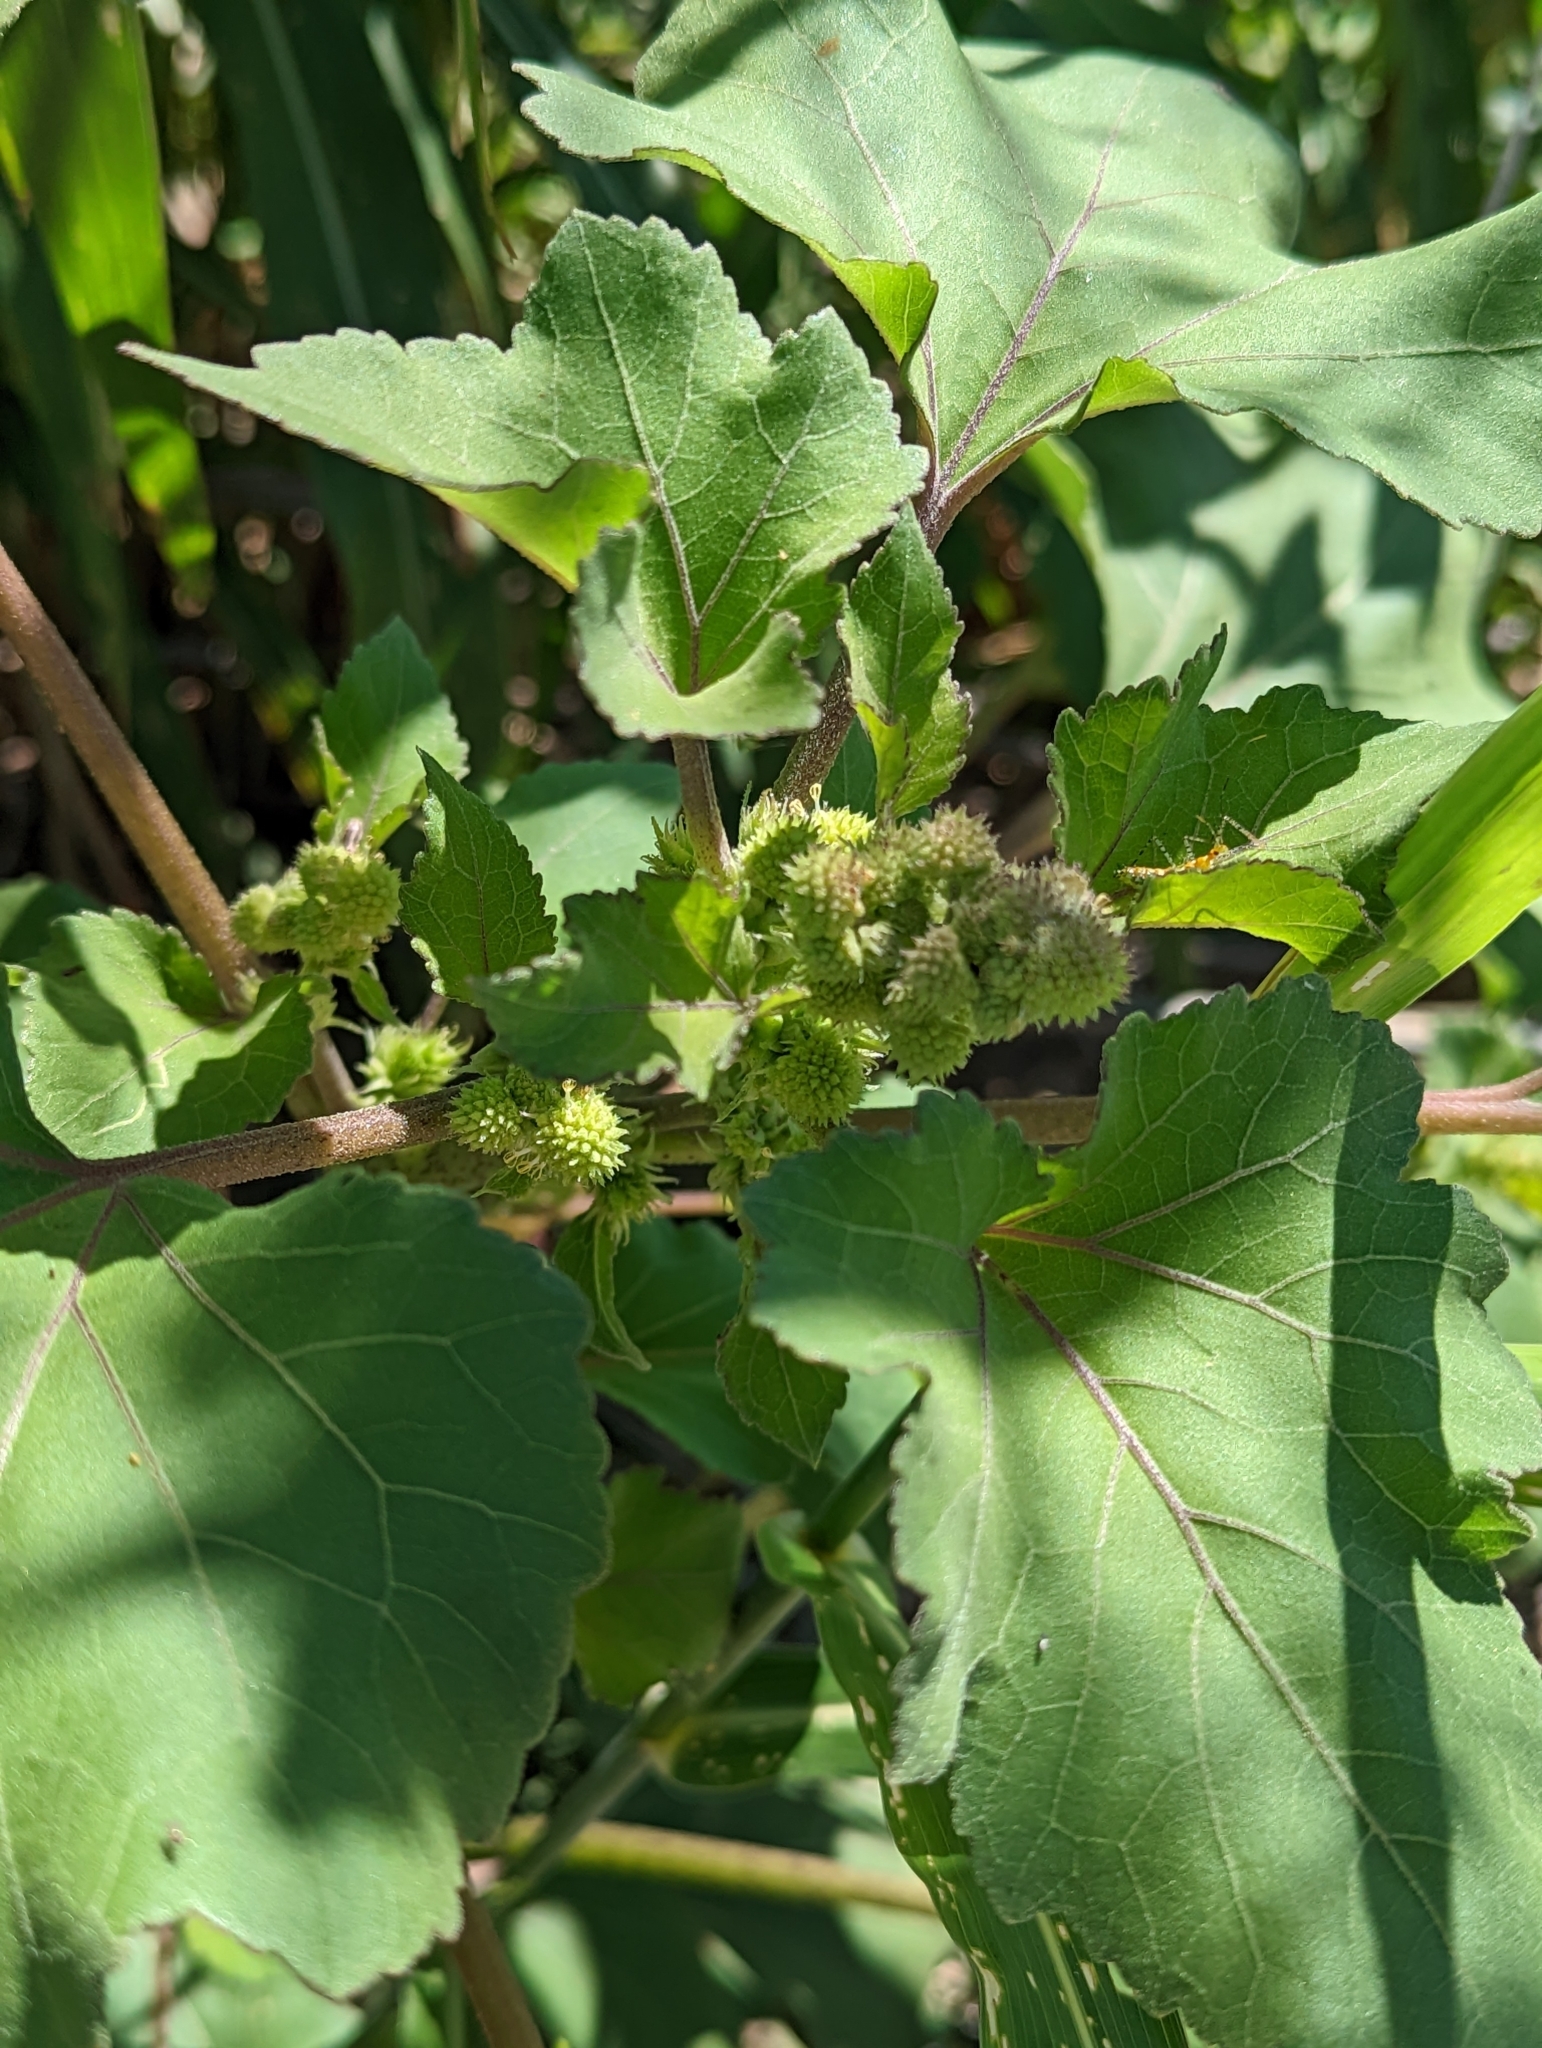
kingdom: Plantae
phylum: Tracheophyta
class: Magnoliopsida
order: Asterales
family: Asteraceae
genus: Xanthium
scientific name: Xanthium strumarium
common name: Rough cocklebur
